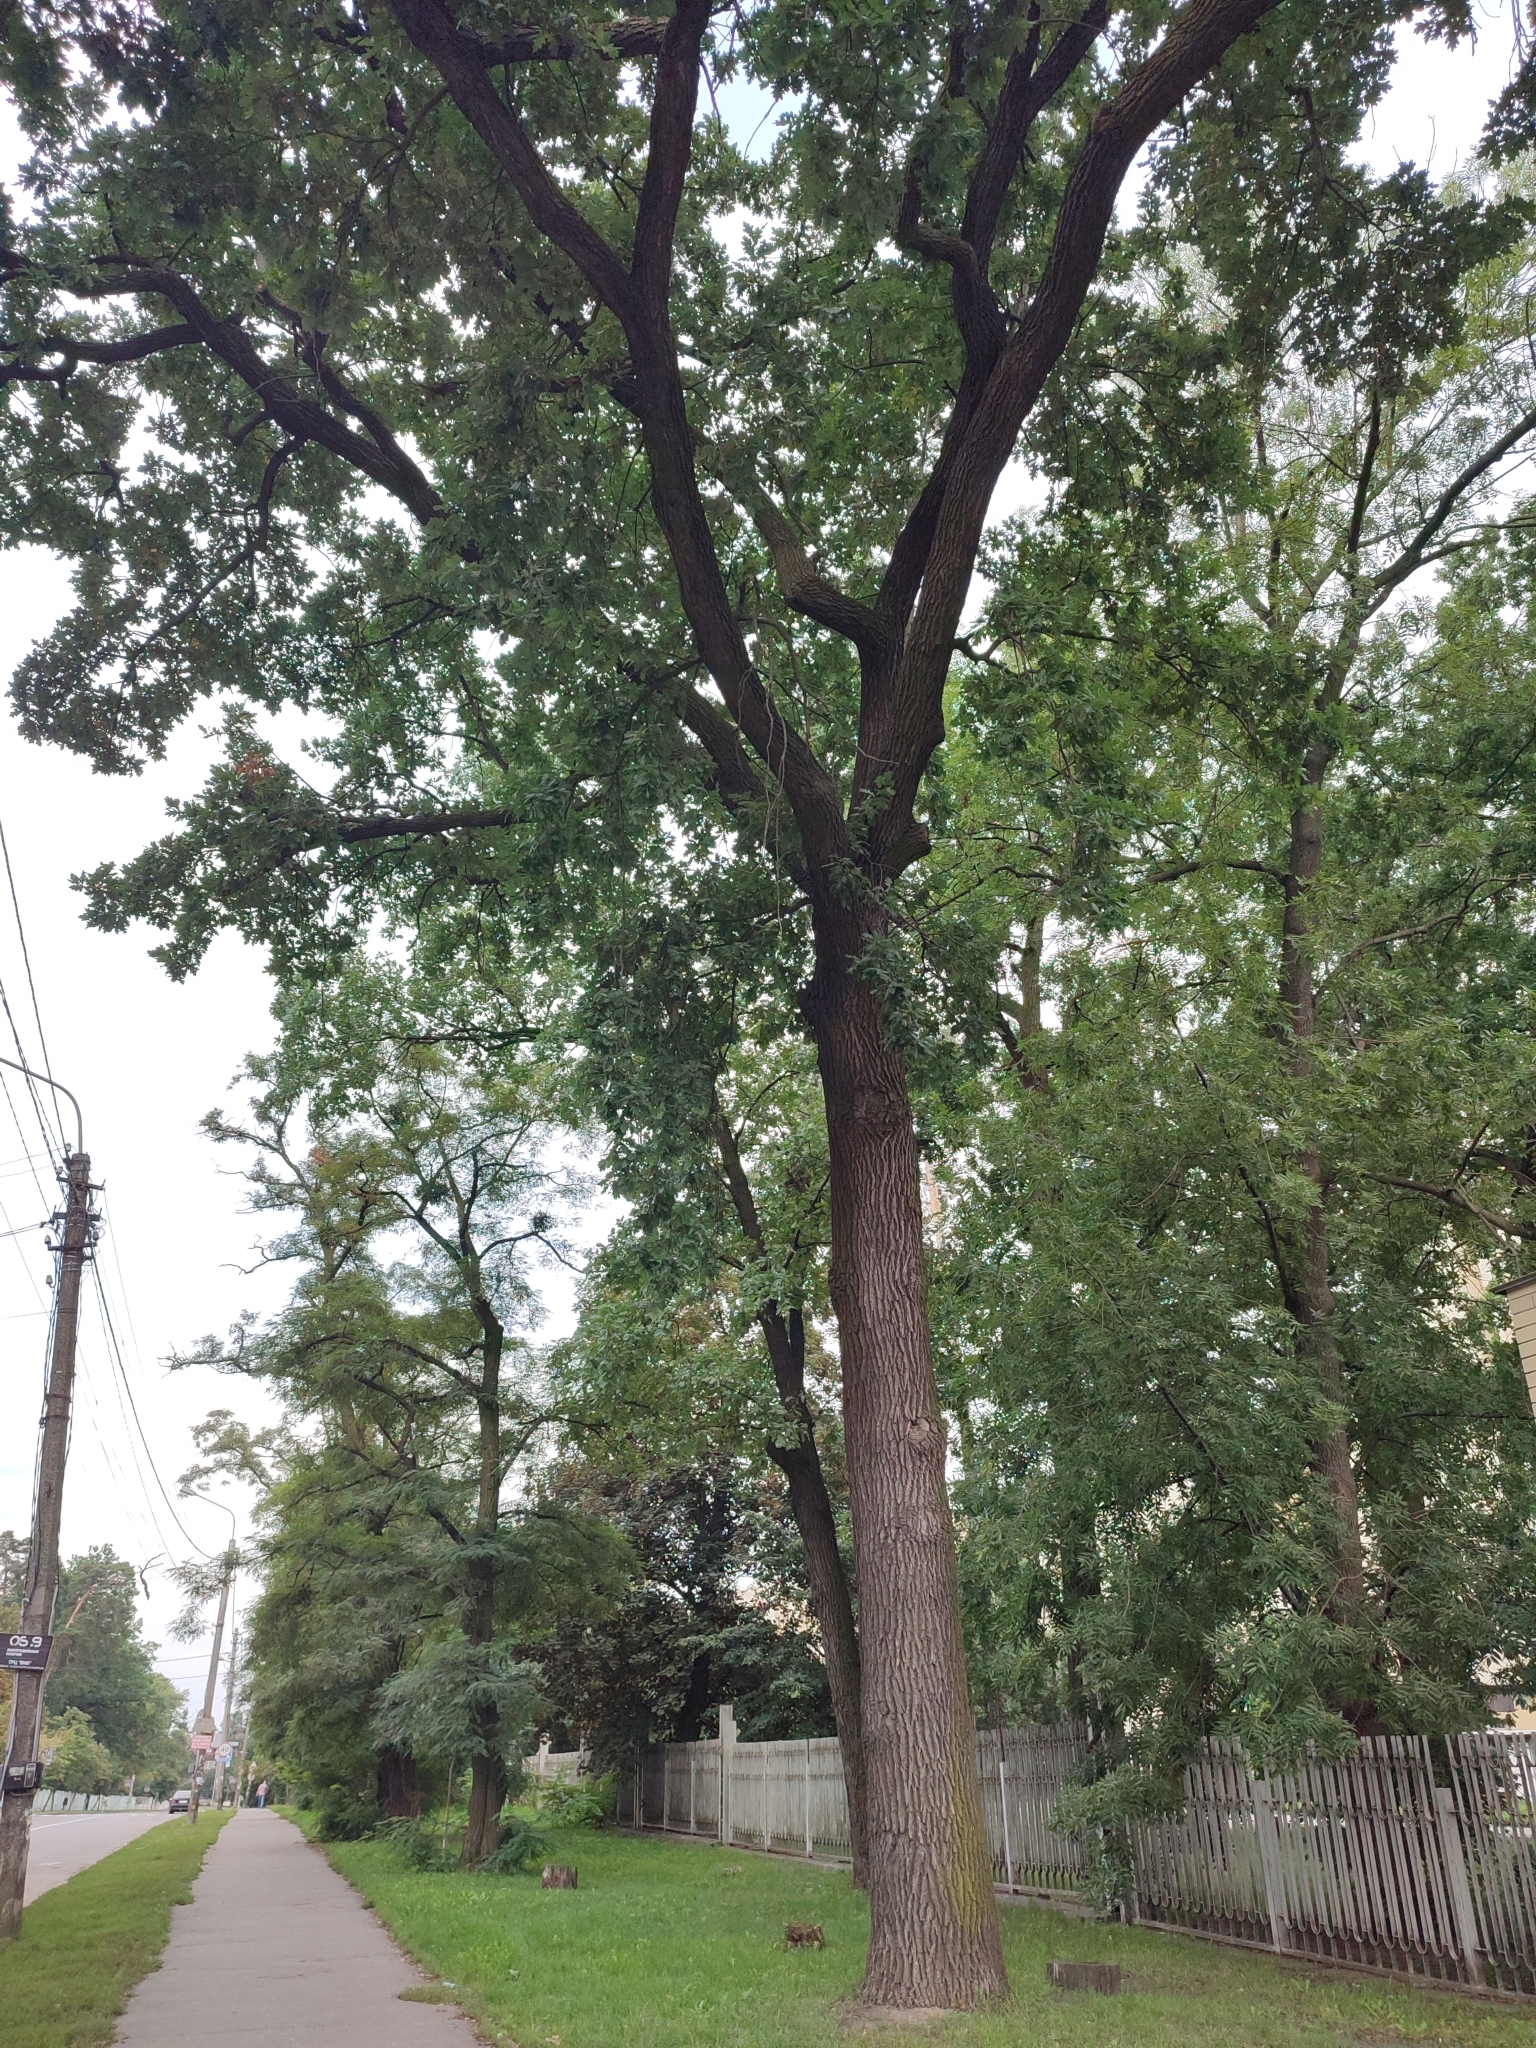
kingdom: Plantae
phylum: Tracheophyta
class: Magnoliopsida
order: Fagales
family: Fagaceae
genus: Quercus
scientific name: Quercus robur
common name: Pedunculate oak
